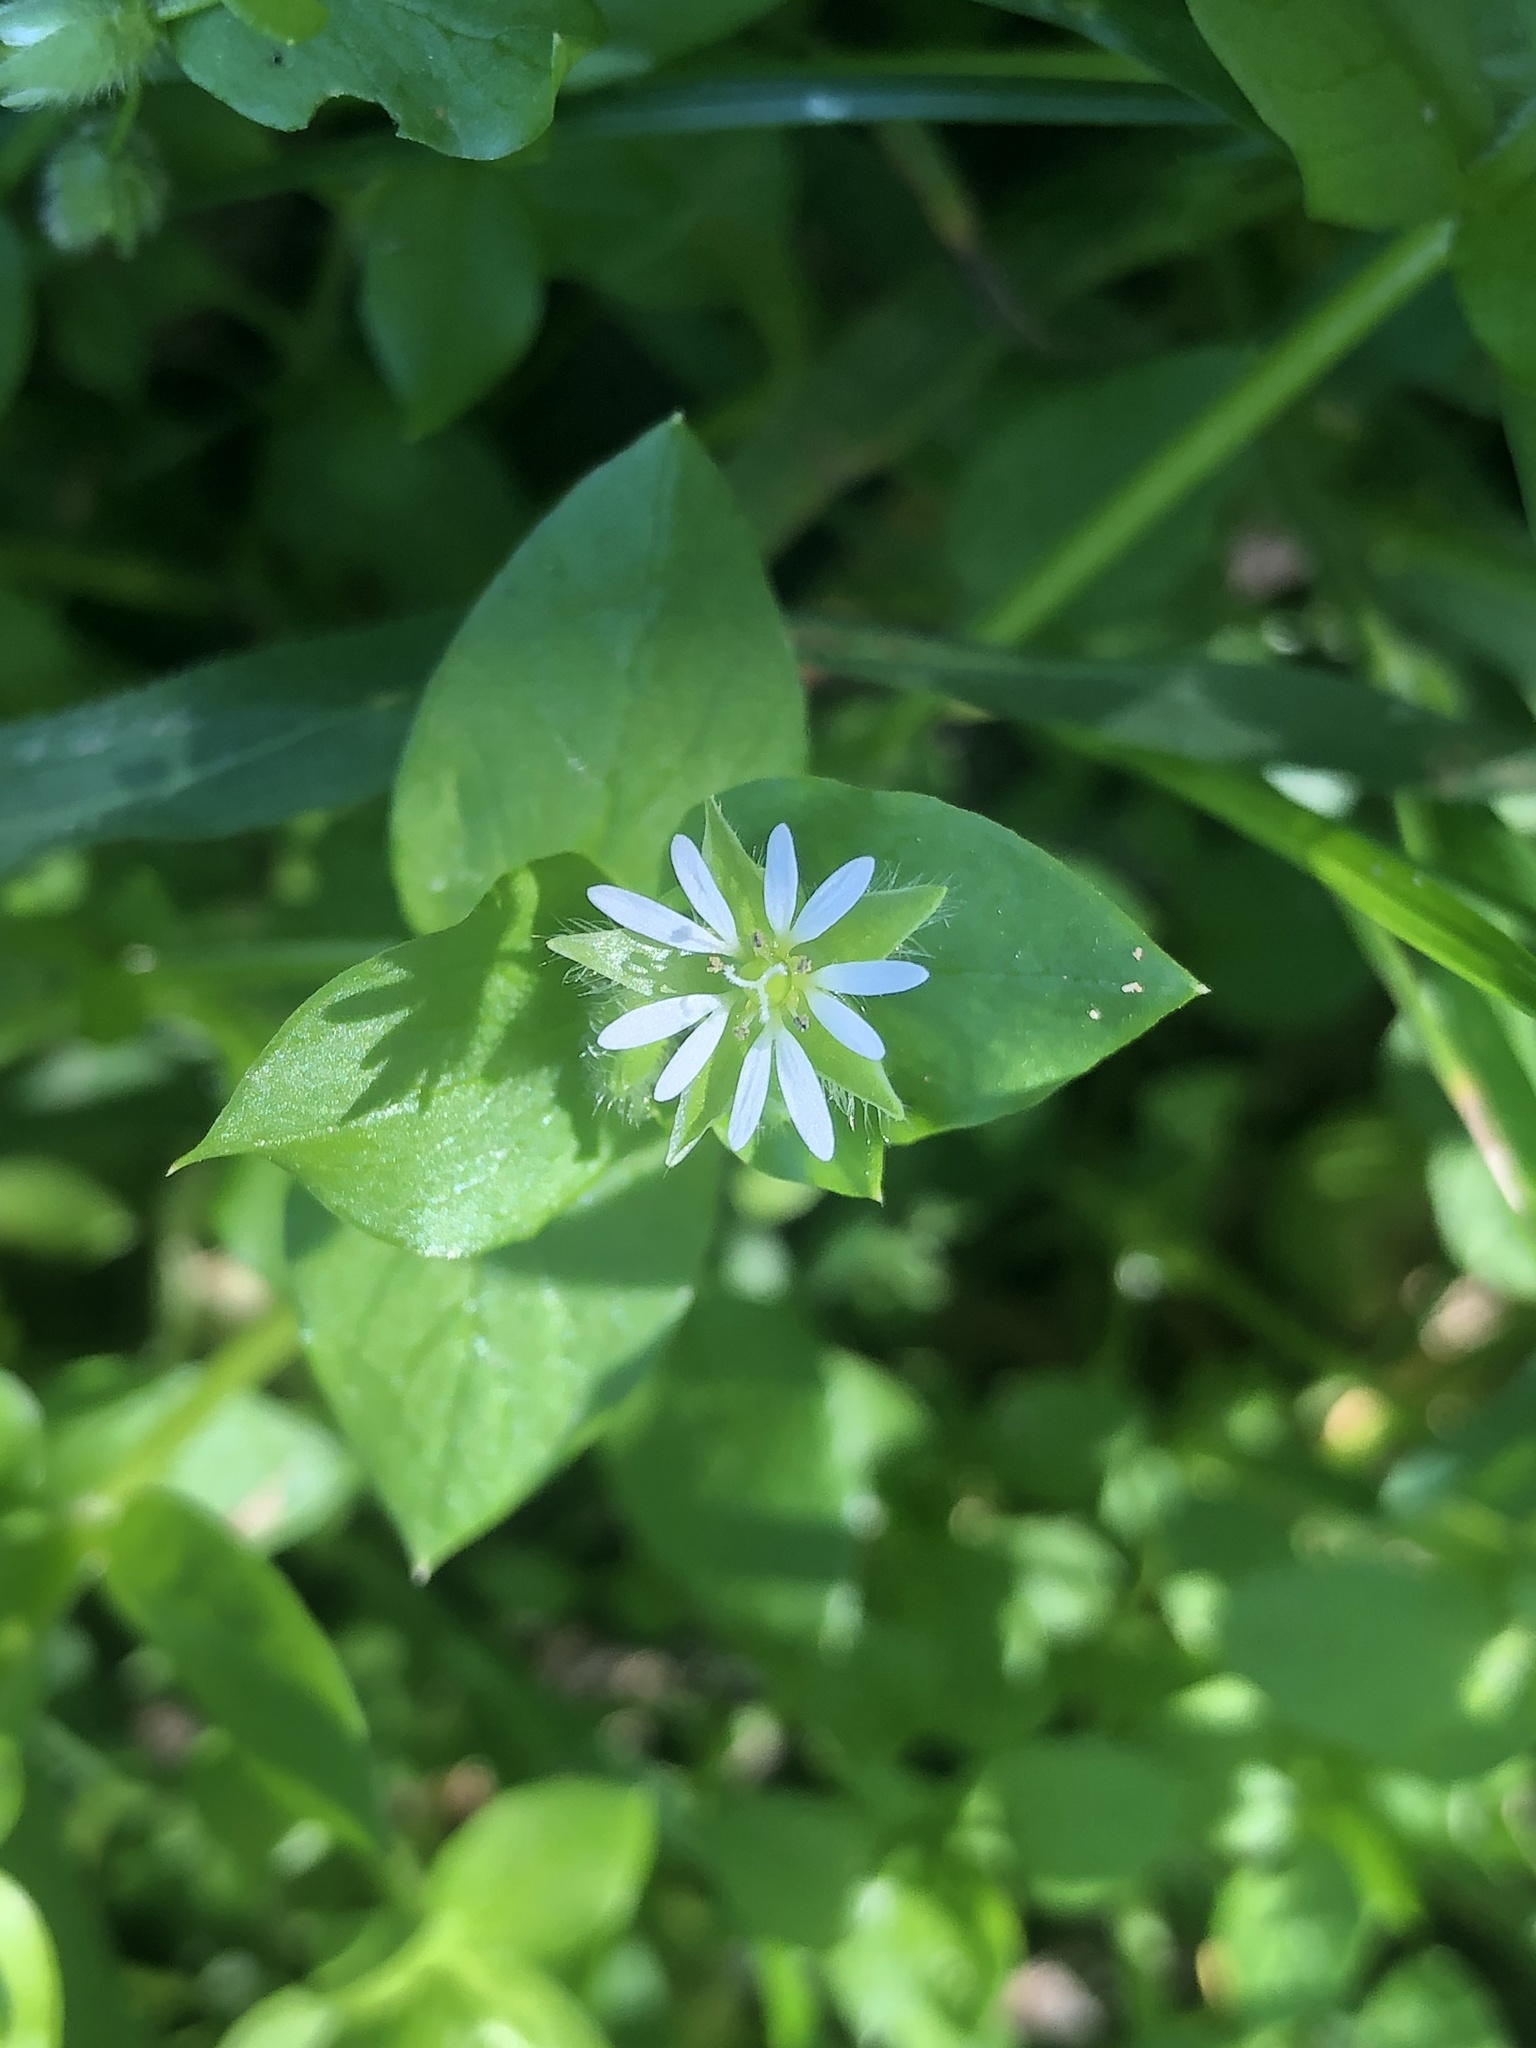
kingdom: Plantae
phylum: Tracheophyta
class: Magnoliopsida
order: Caryophyllales
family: Caryophyllaceae
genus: Stellaria
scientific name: Stellaria media
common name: Common chickweed
